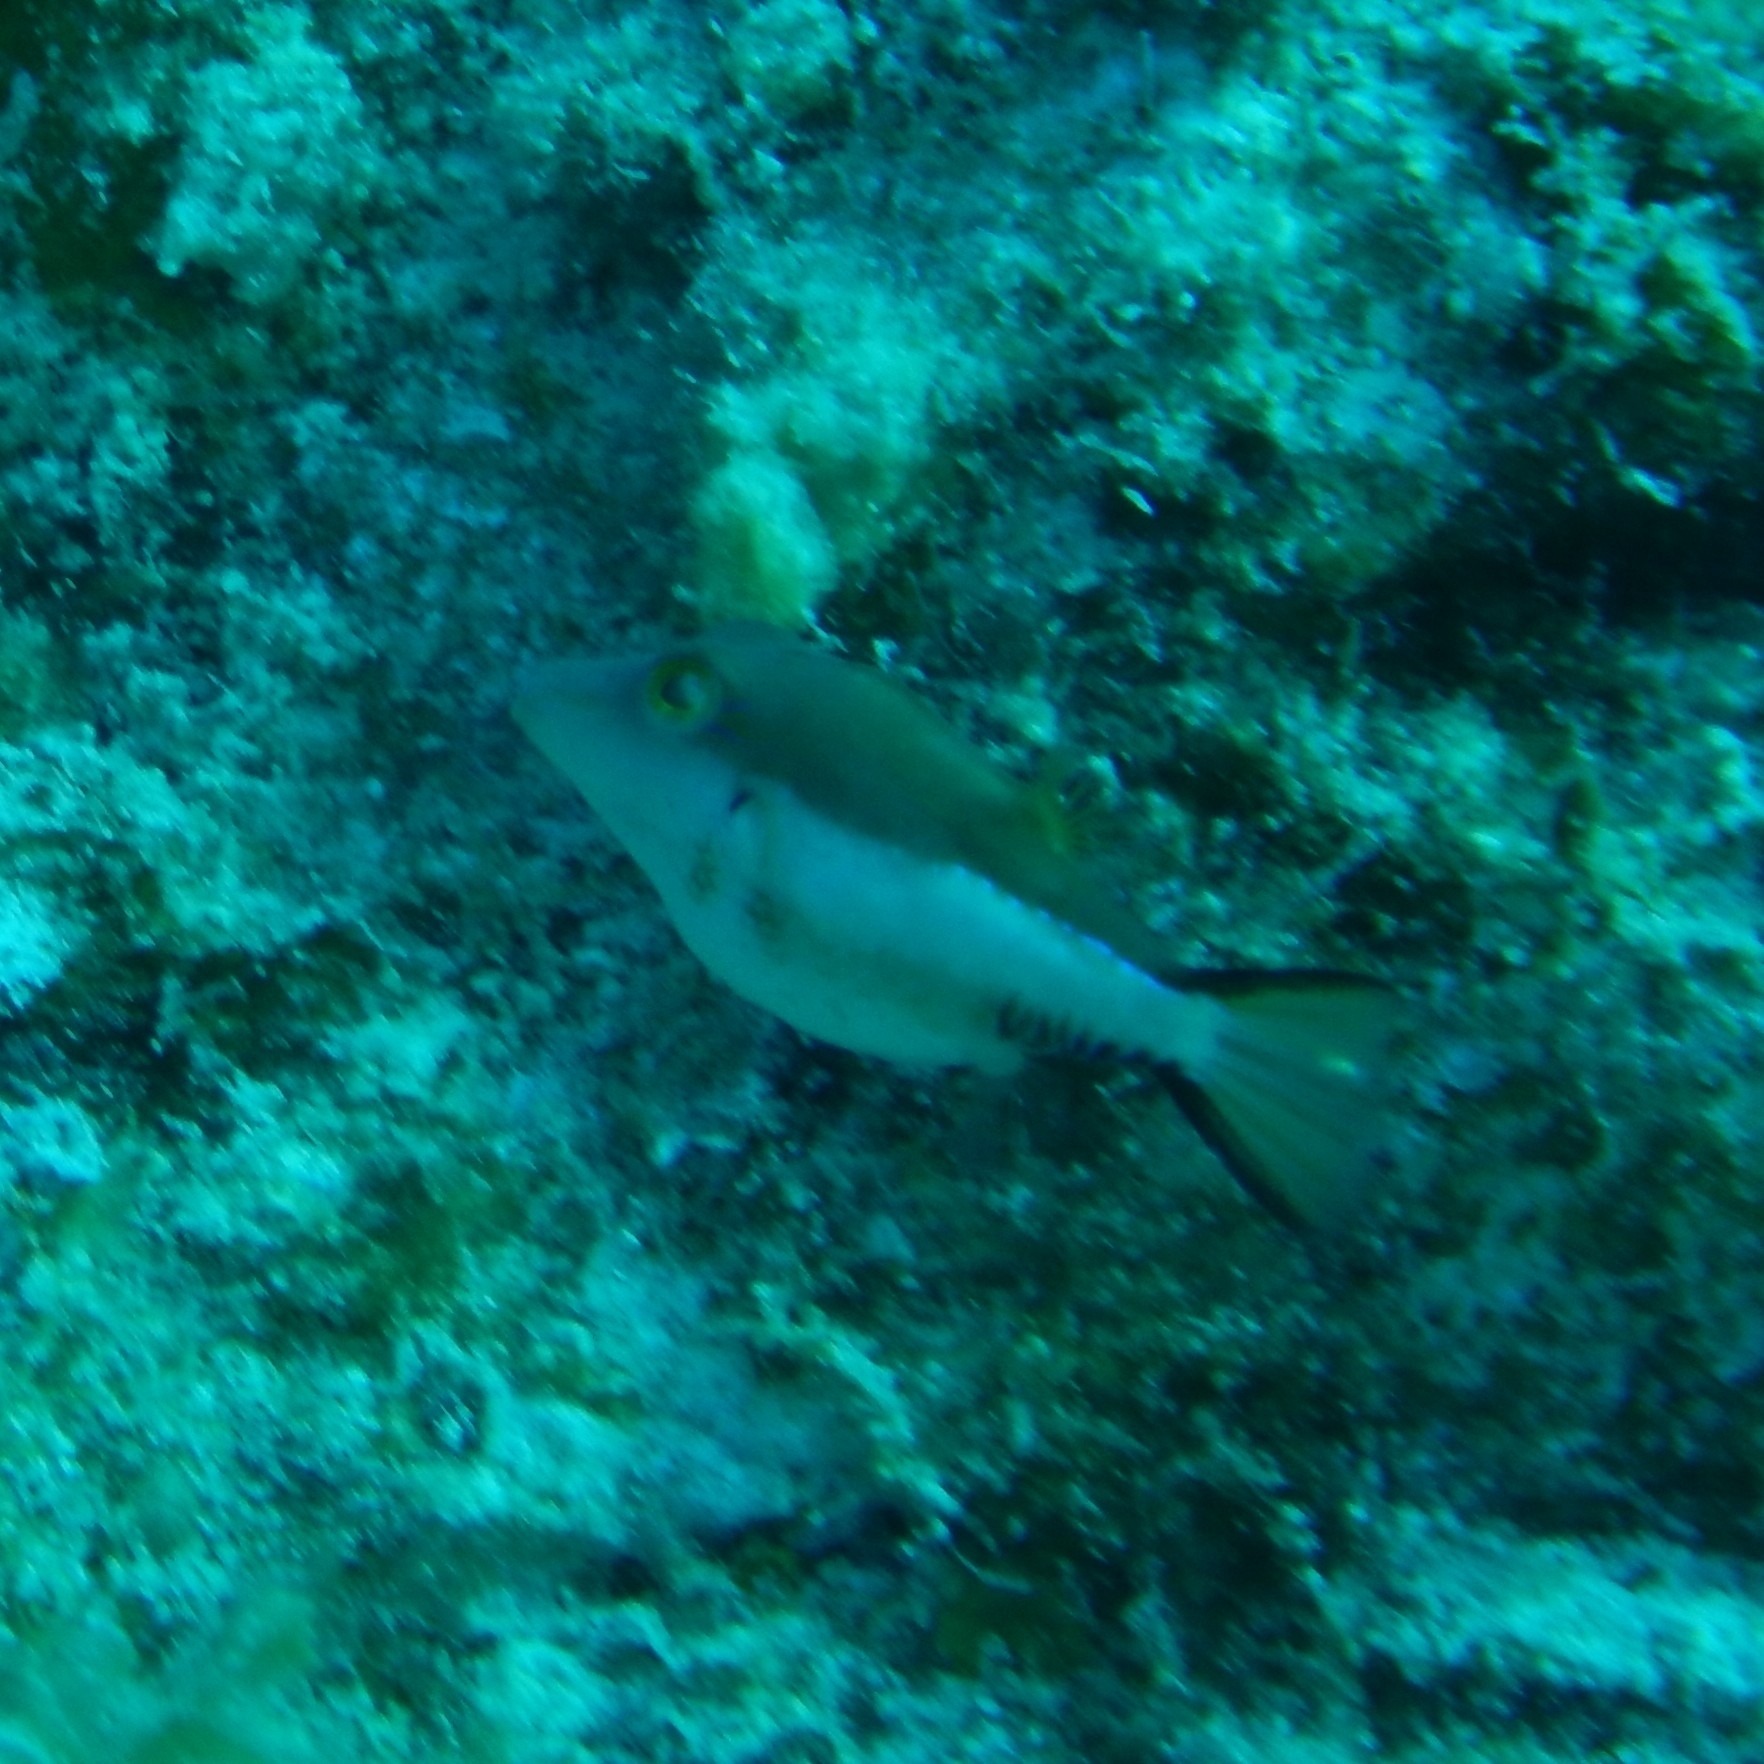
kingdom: Animalia
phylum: Chordata
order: Tetraodontiformes
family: Tetraodontidae
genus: Canthigaster
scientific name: Canthigaster rostrata
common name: Caribbean sharpnose-puffer
